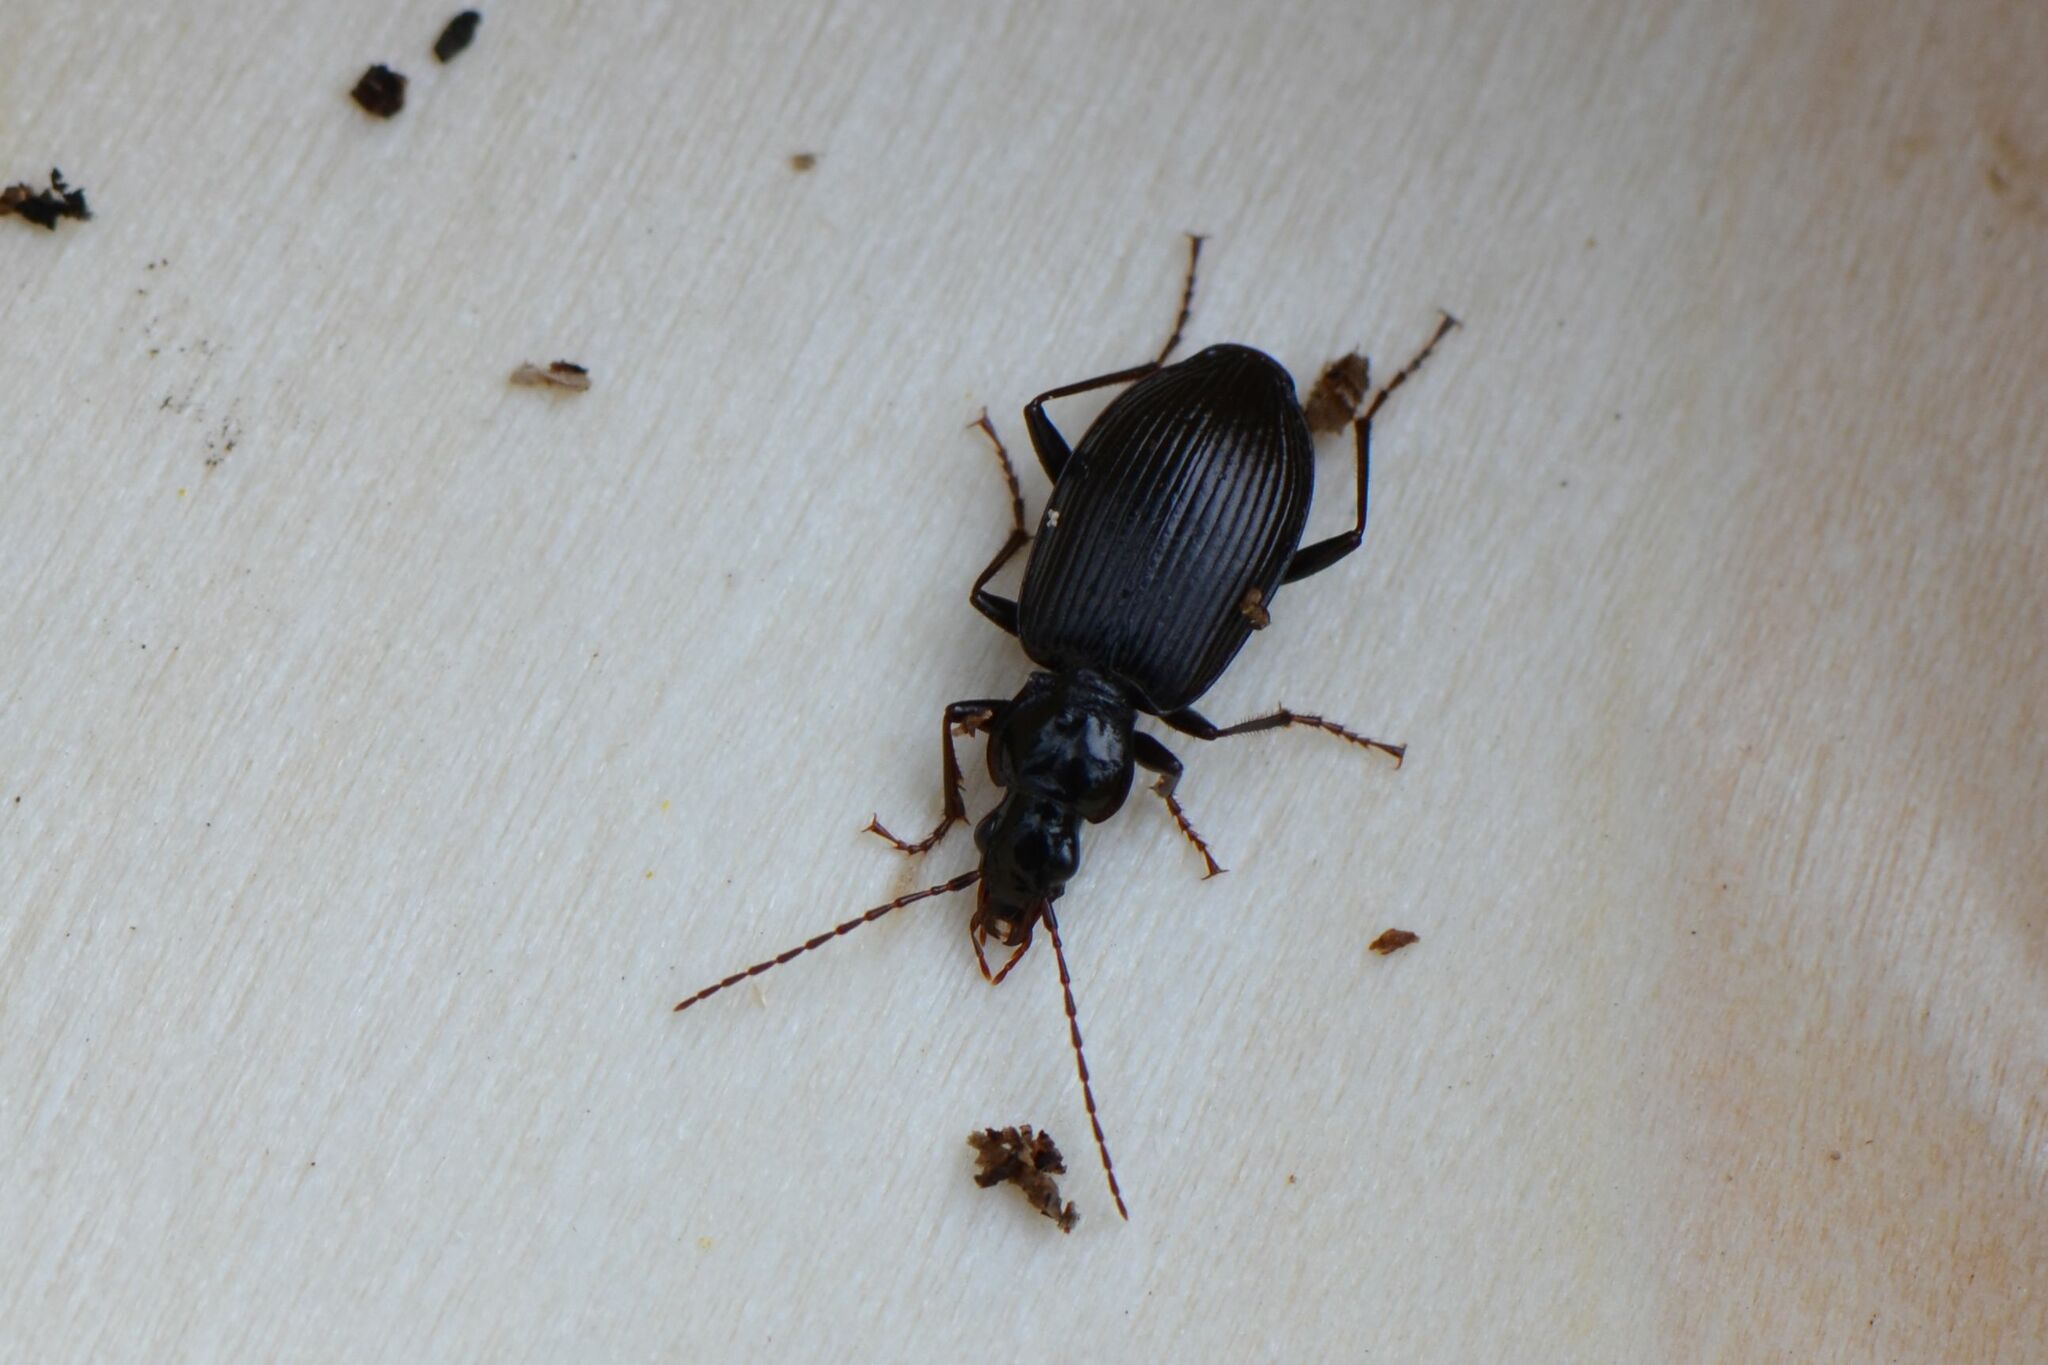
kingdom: Animalia
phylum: Arthropoda
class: Insecta
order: Coleoptera
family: Carabidae
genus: Platynus
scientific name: Platynus assimilis
